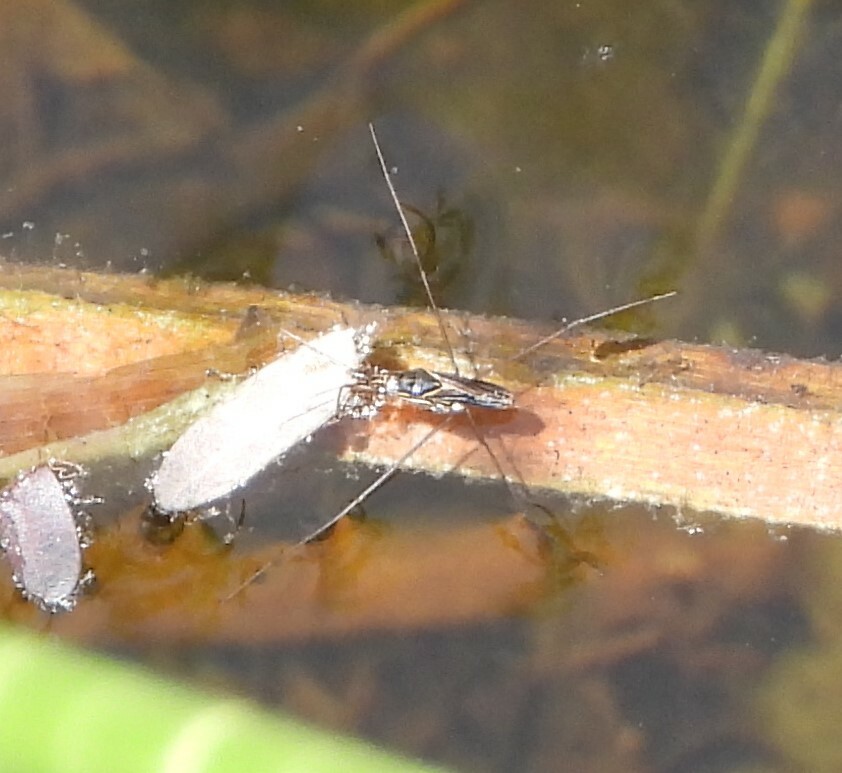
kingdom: Animalia
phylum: Arthropoda
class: Insecta
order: Hemiptera
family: Gerridae
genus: Limnogonus
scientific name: Limnogonus
